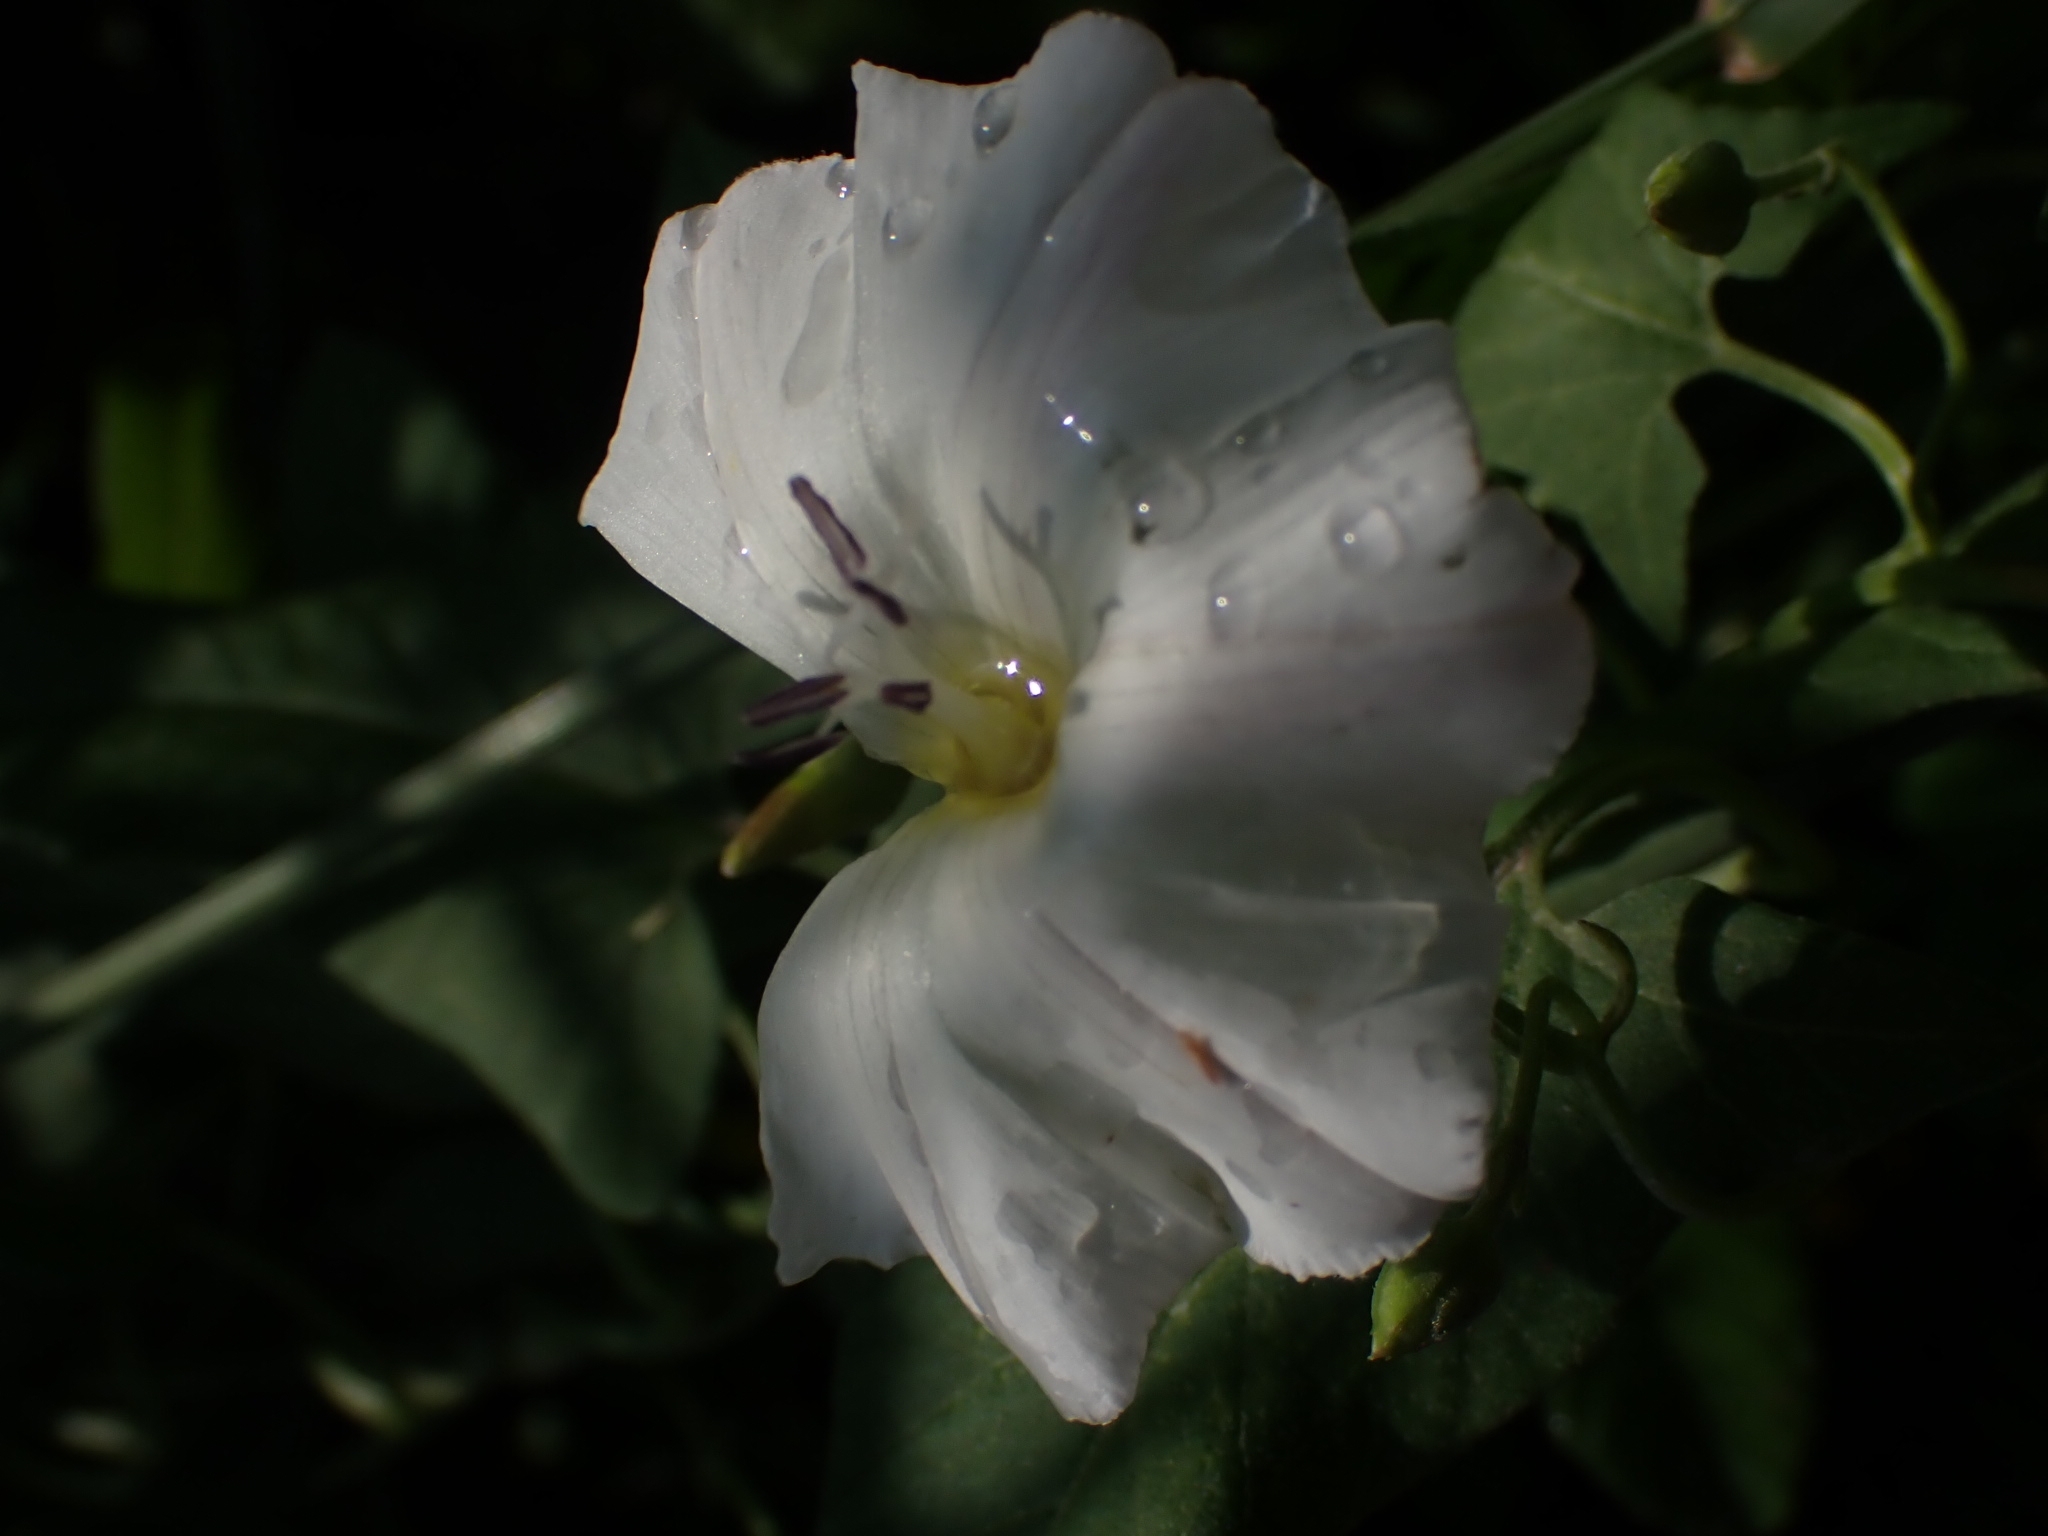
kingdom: Plantae
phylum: Tracheophyta
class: Magnoliopsida
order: Solanales
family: Convolvulaceae
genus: Convolvulus
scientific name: Convolvulus arvensis
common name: Field bindweed
